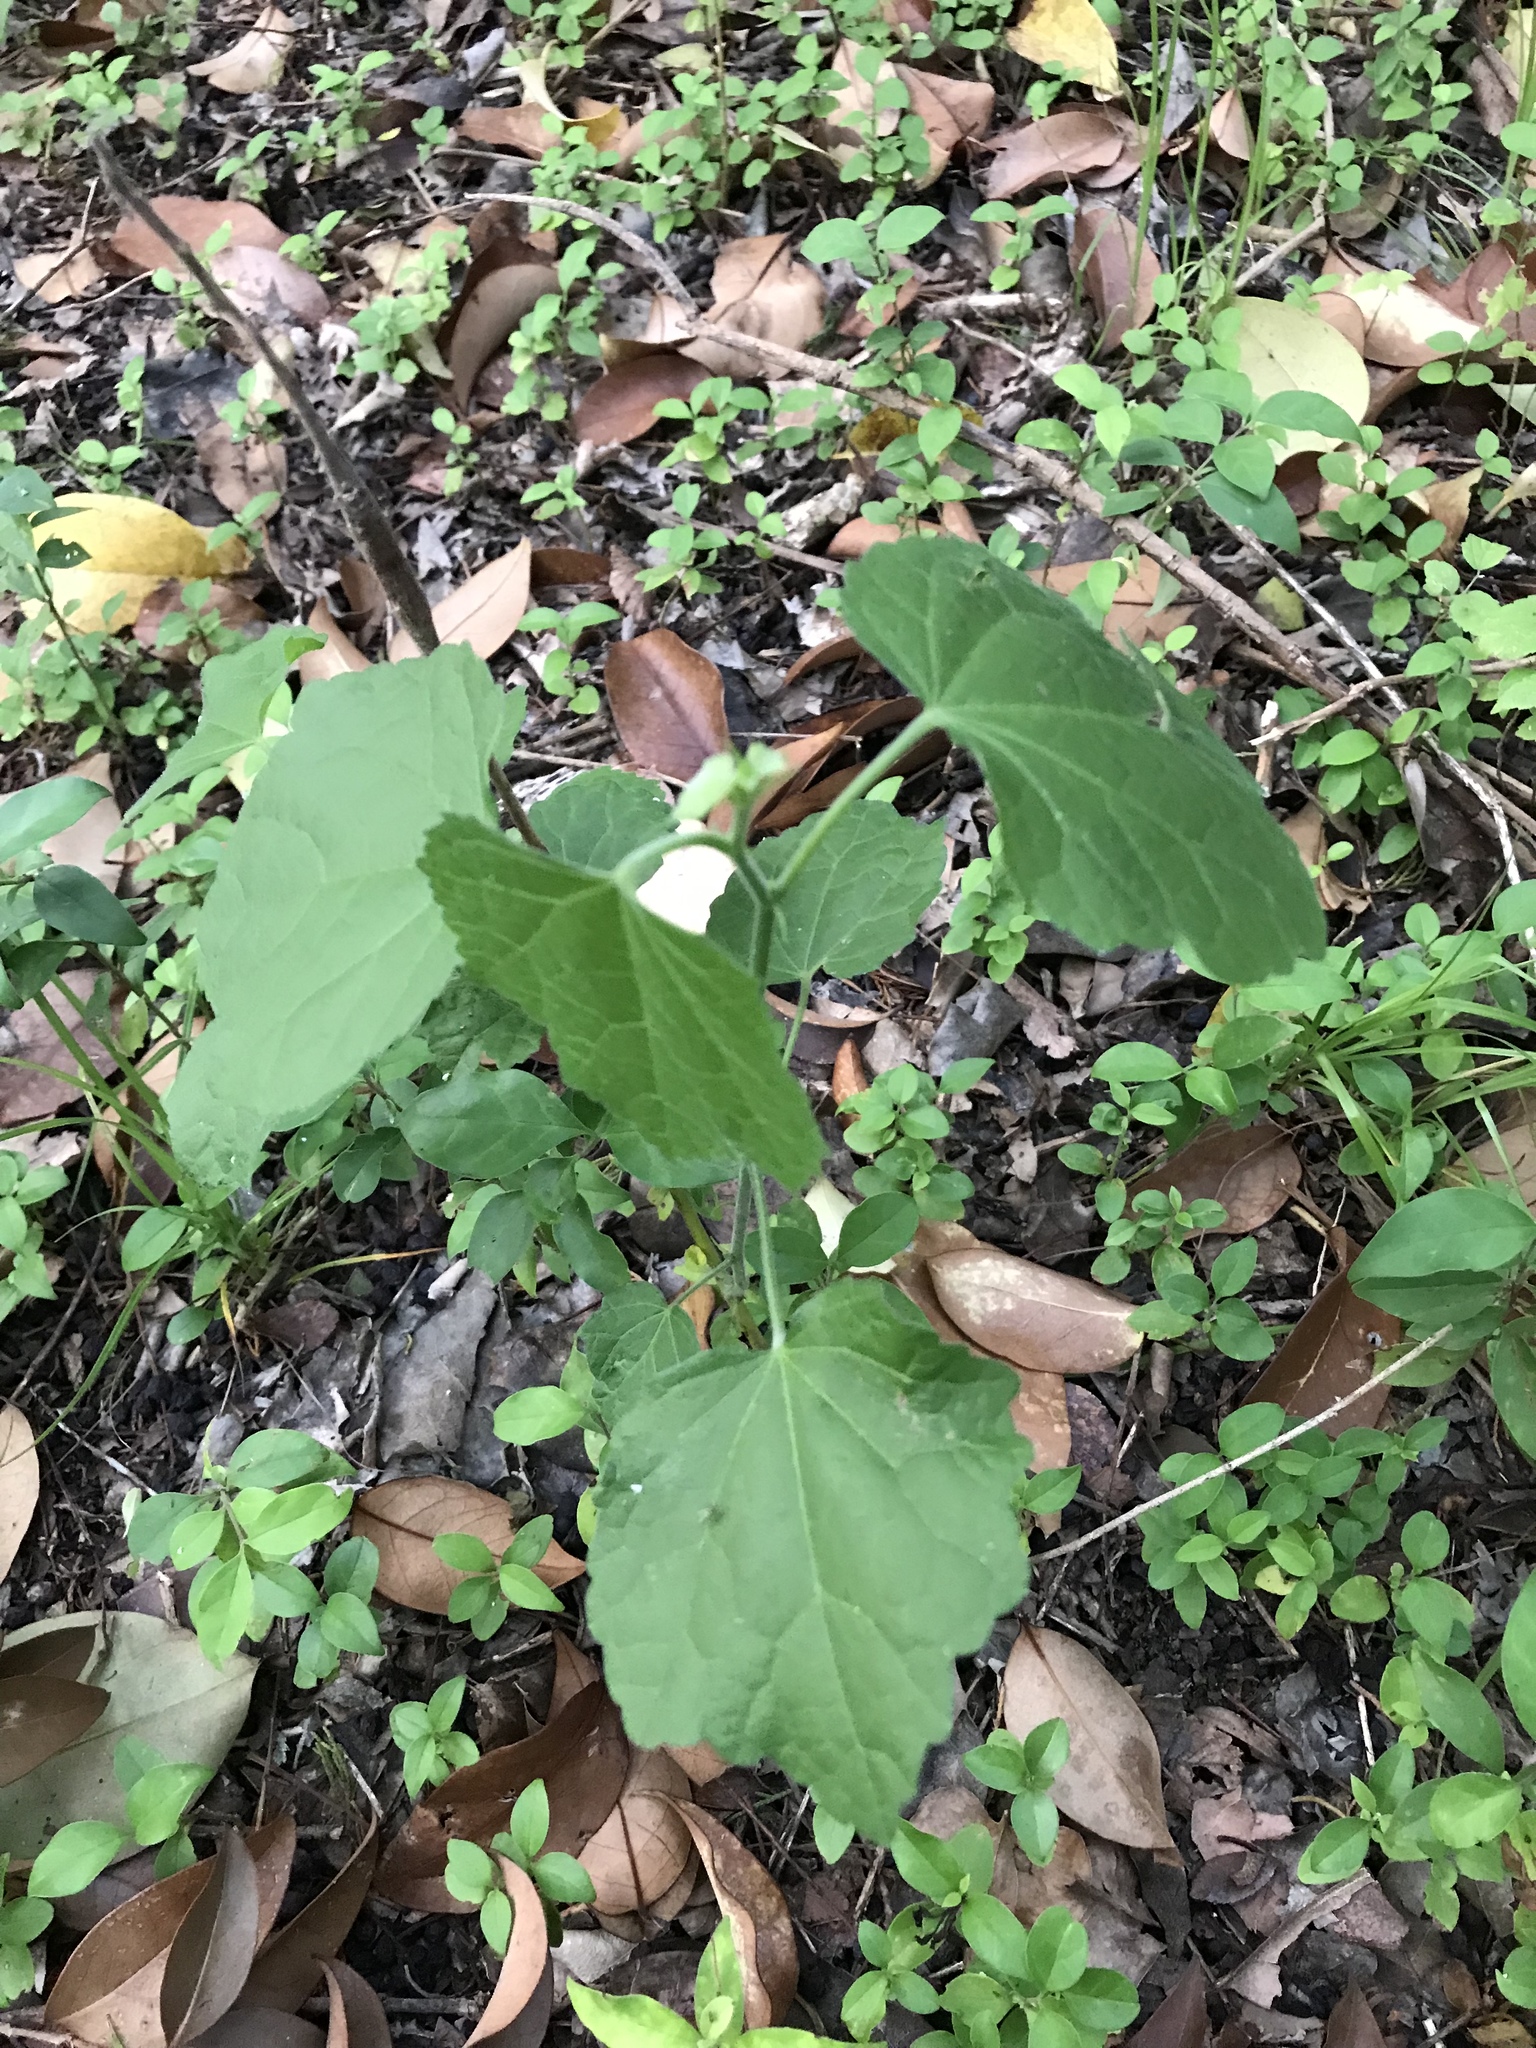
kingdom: Plantae
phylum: Tracheophyta
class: Magnoliopsida
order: Malvales
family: Malvaceae
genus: Malvaviscus
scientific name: Malvaviscus arboreus
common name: Wax mallow
